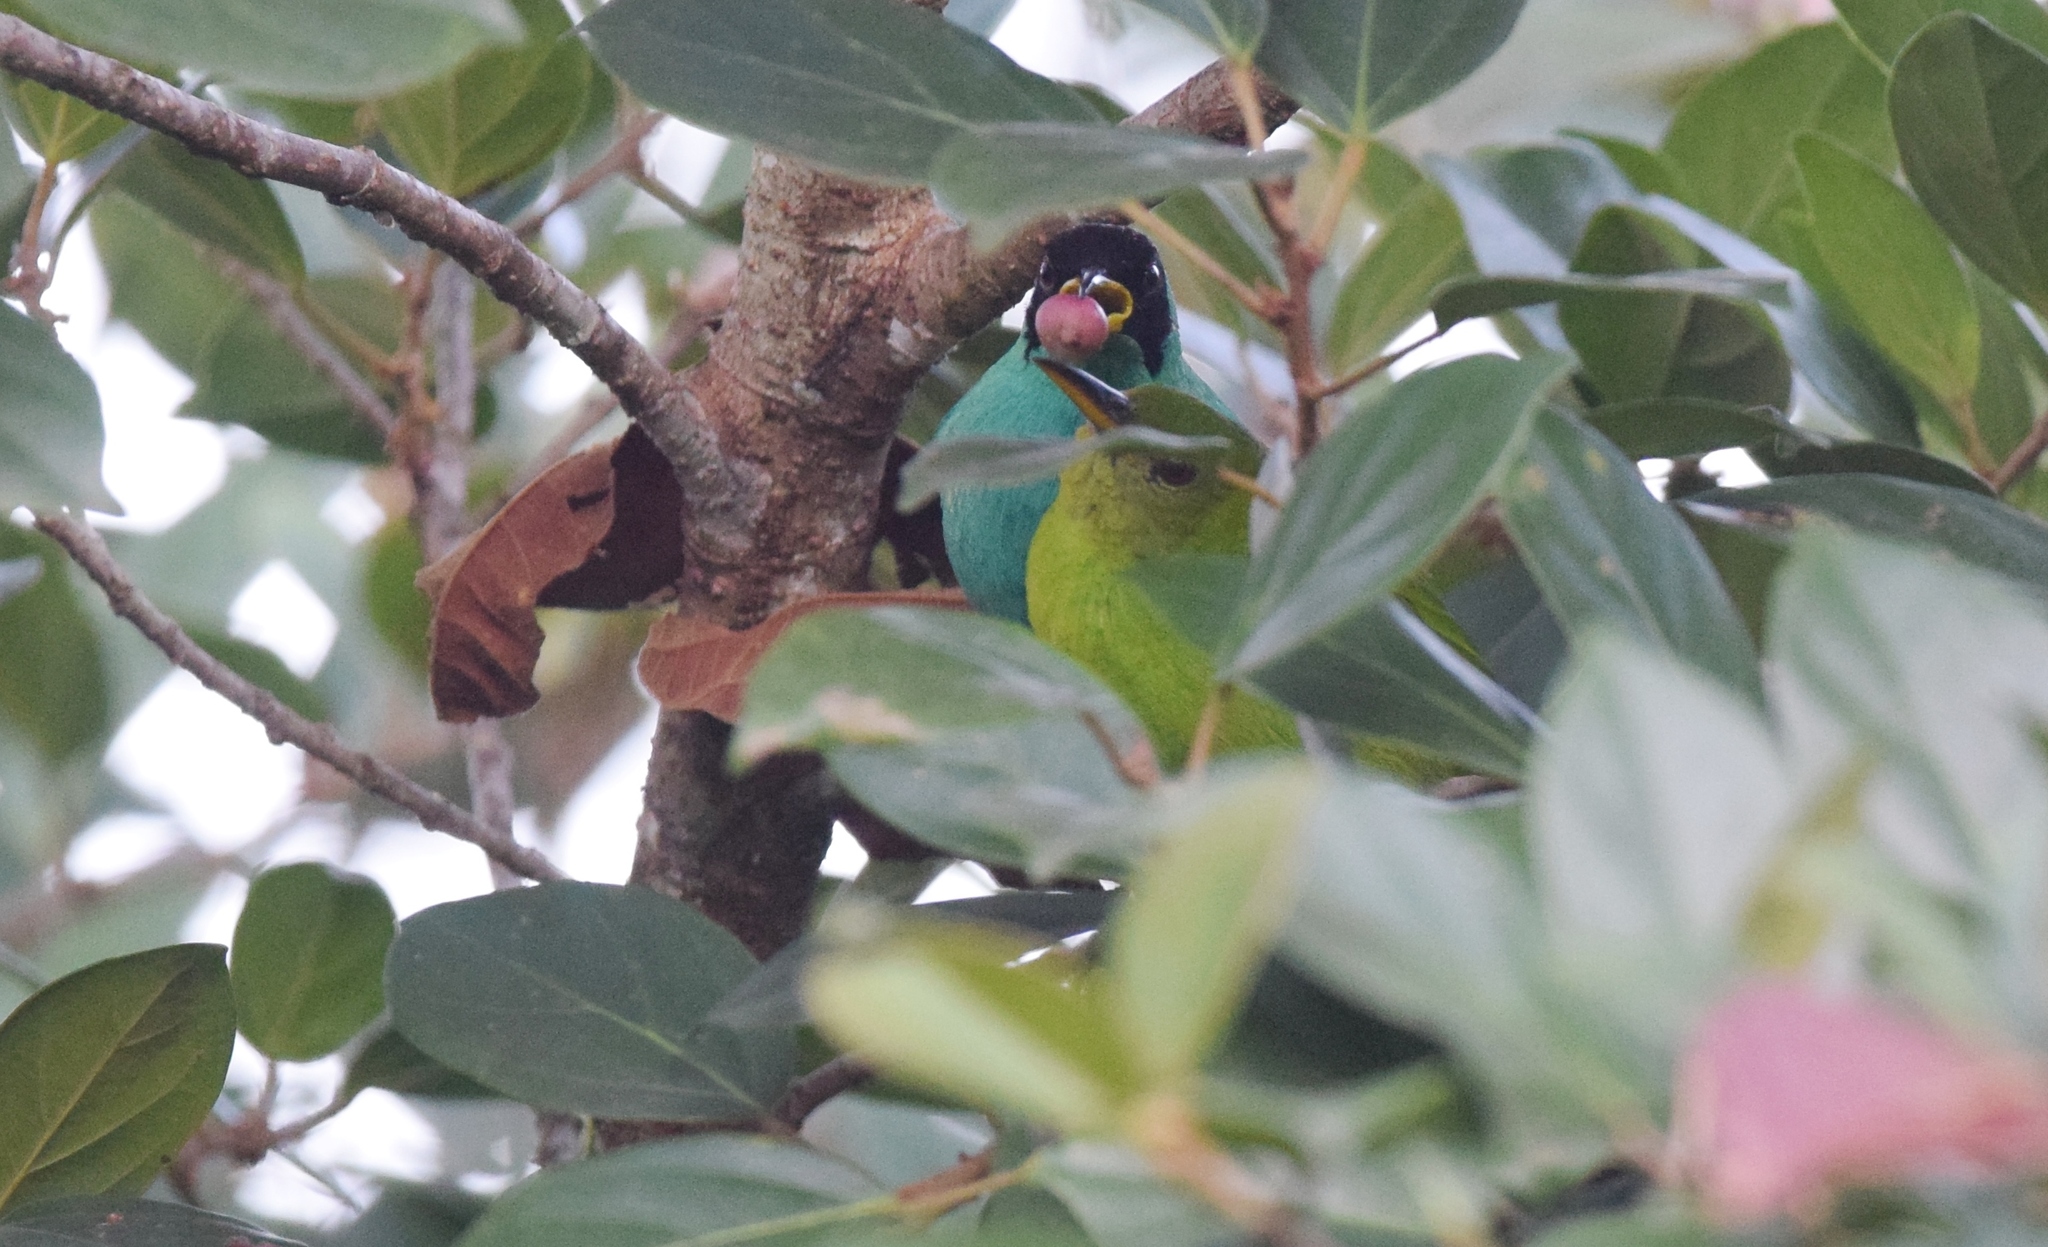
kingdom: Animalia
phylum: Chordata
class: Aves
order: Passeriformes
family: Thraupidae
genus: Chlorophanes
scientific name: Chlorophanes spiza
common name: Green honeycreeper
